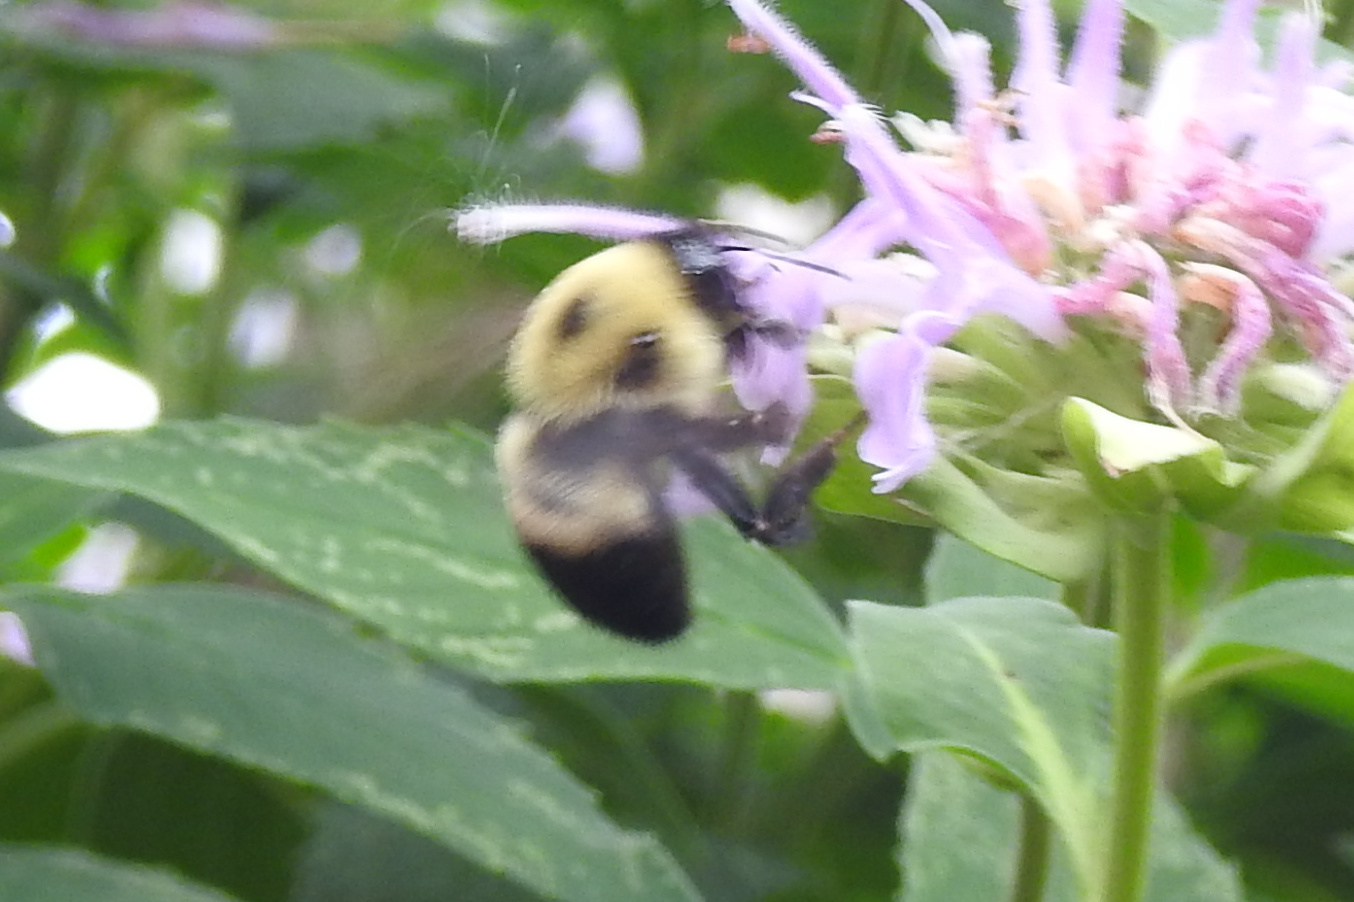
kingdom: Animalia
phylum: Arthropoda
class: Insecta
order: Hymenoptera
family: Apidae
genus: Bombus
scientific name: Bombus griseocollis
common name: Brown-belted bumble bee
